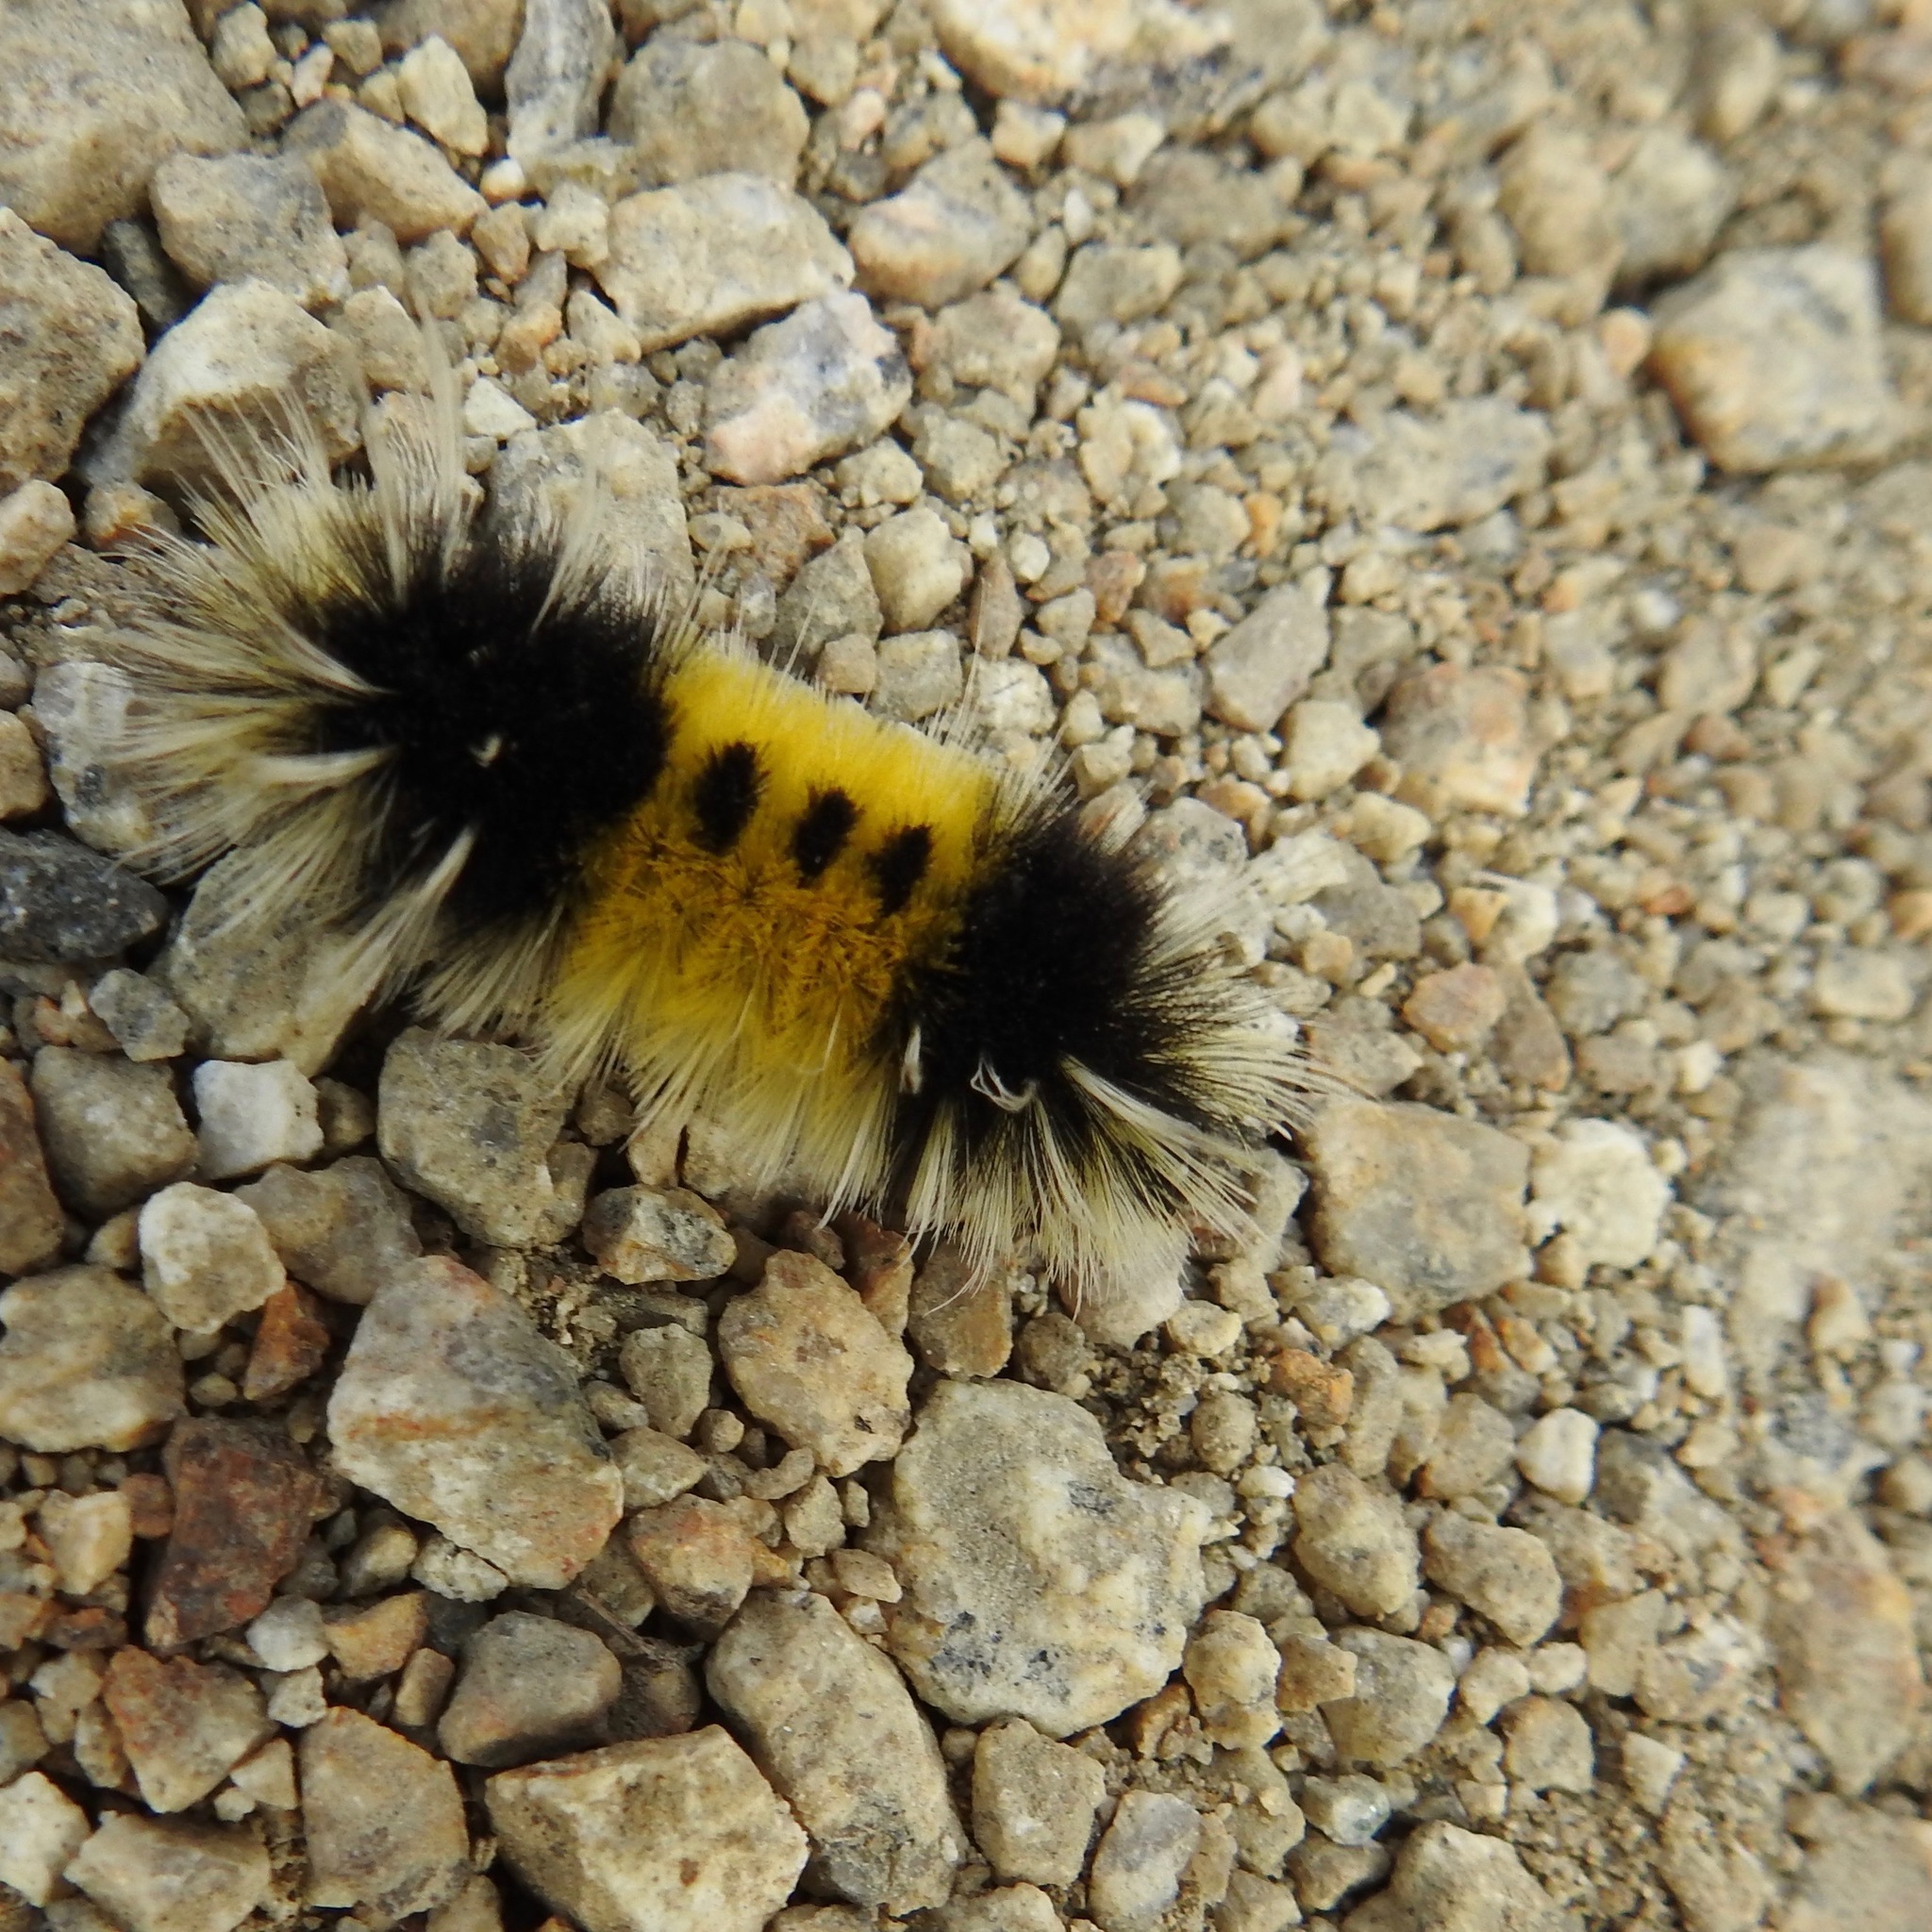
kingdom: Animalia
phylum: Arthropoda
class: Insecta
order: Lepidoptera
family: Erebidae
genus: Lophocampa
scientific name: Lophocampa maculata
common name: Spotted tussock moth
